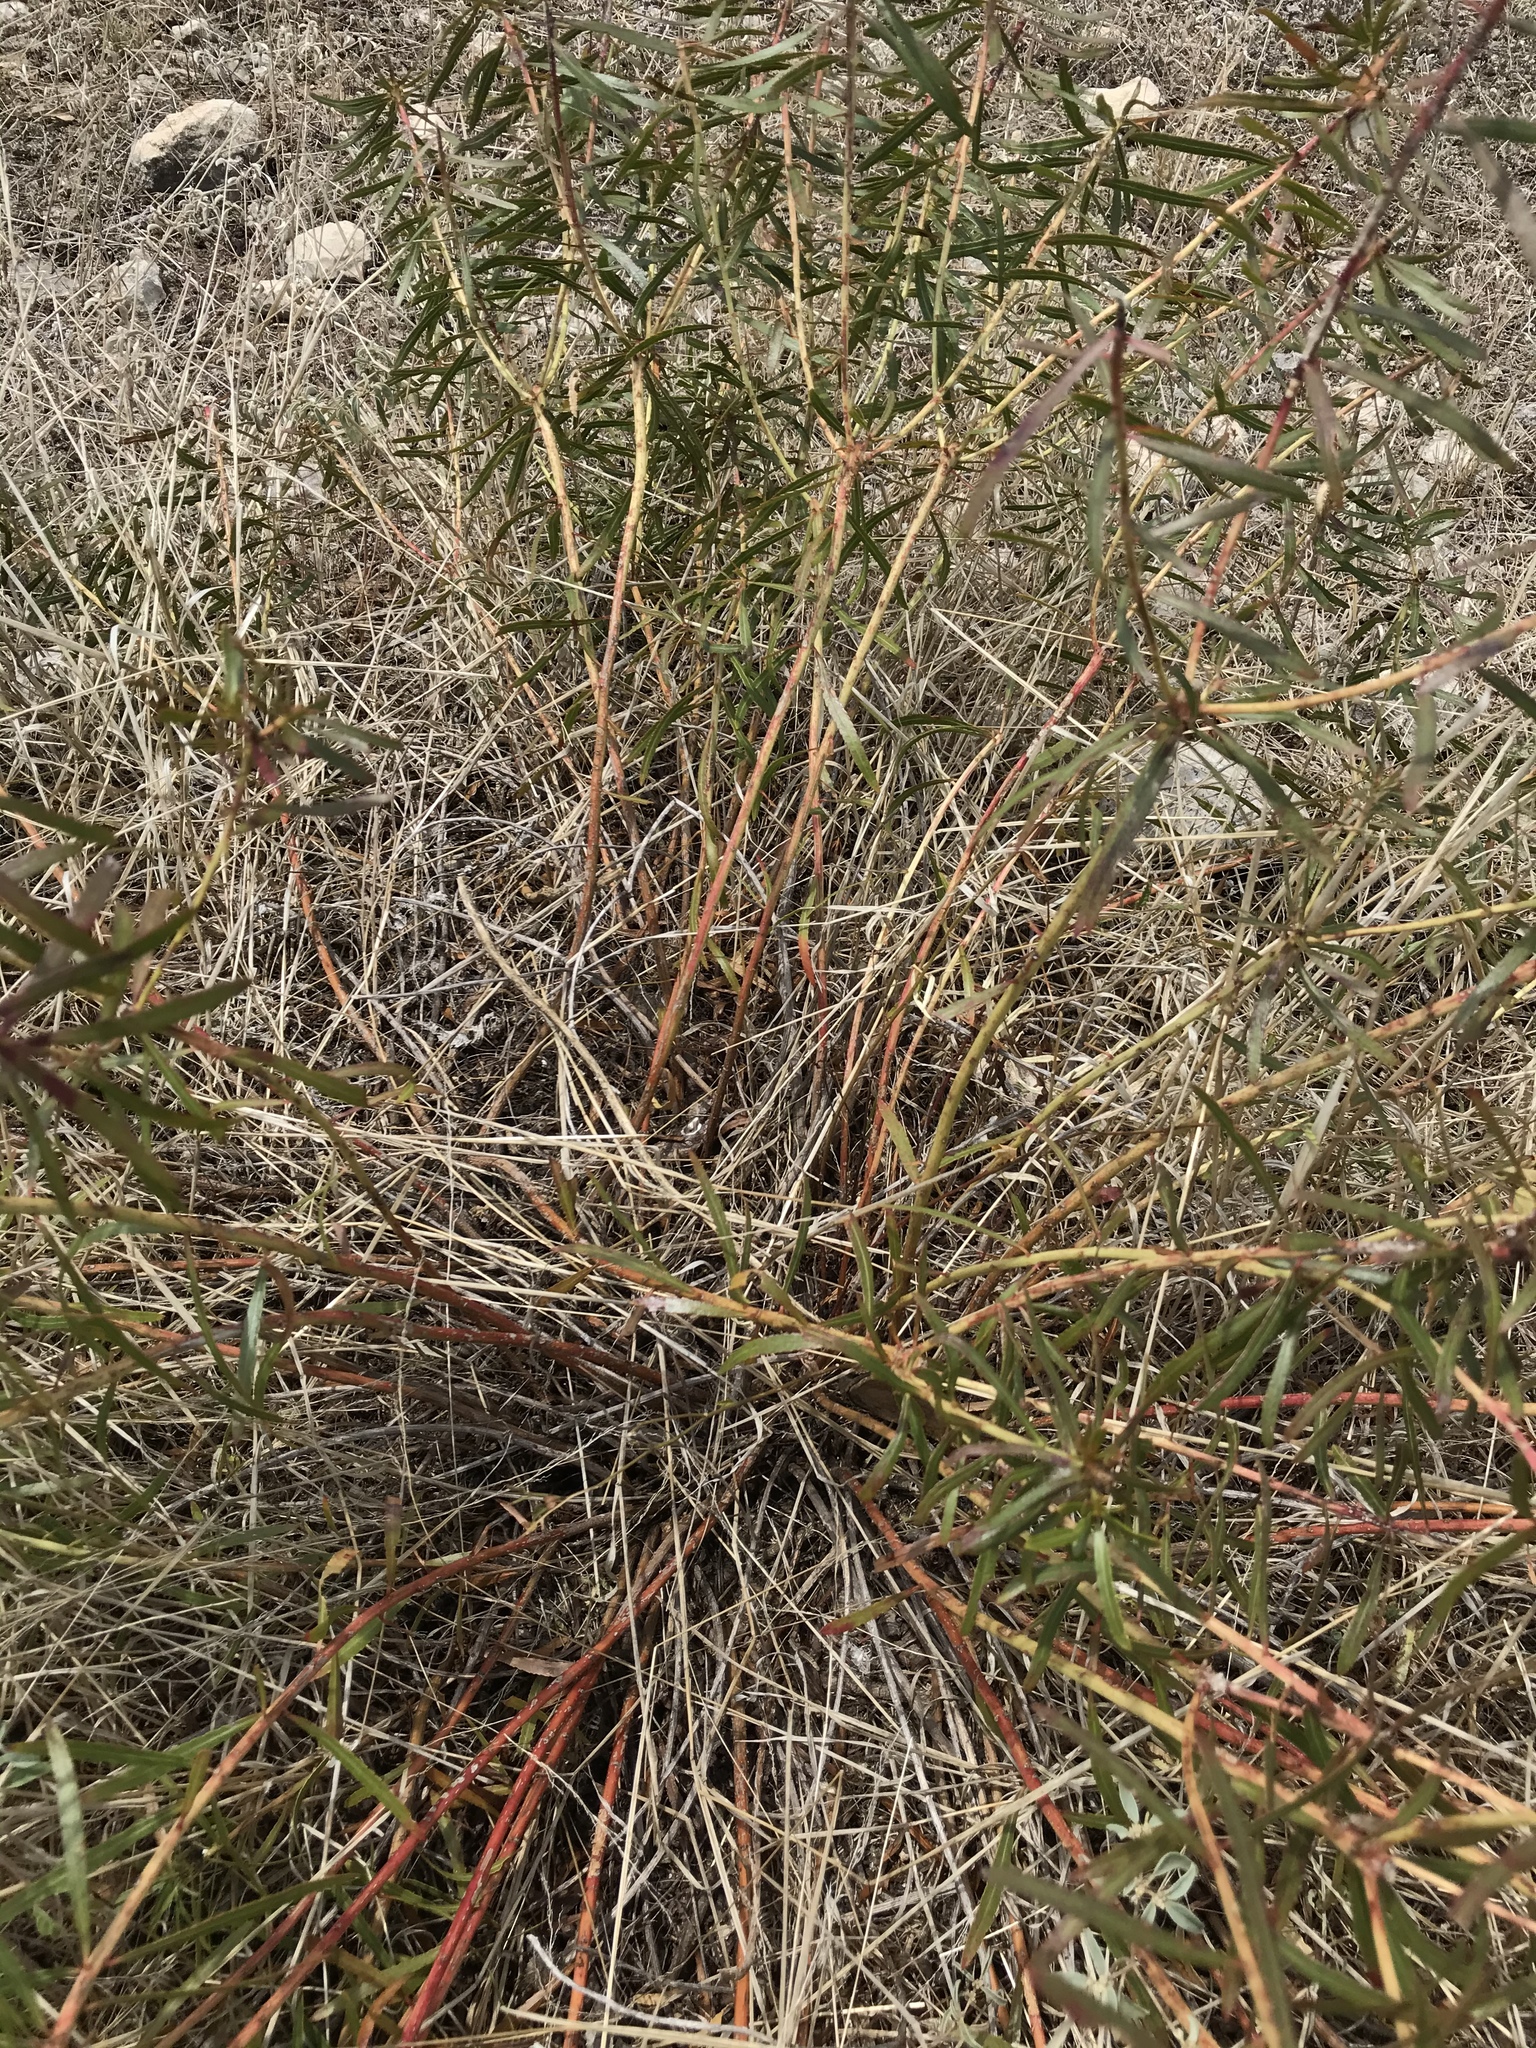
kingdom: Plantae
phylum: Tracheophyta
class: Magnoliopsida
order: Malpighiales
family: Euphorbiaceae
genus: Stillingia
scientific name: Stillingia texana
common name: Texas stillingia
